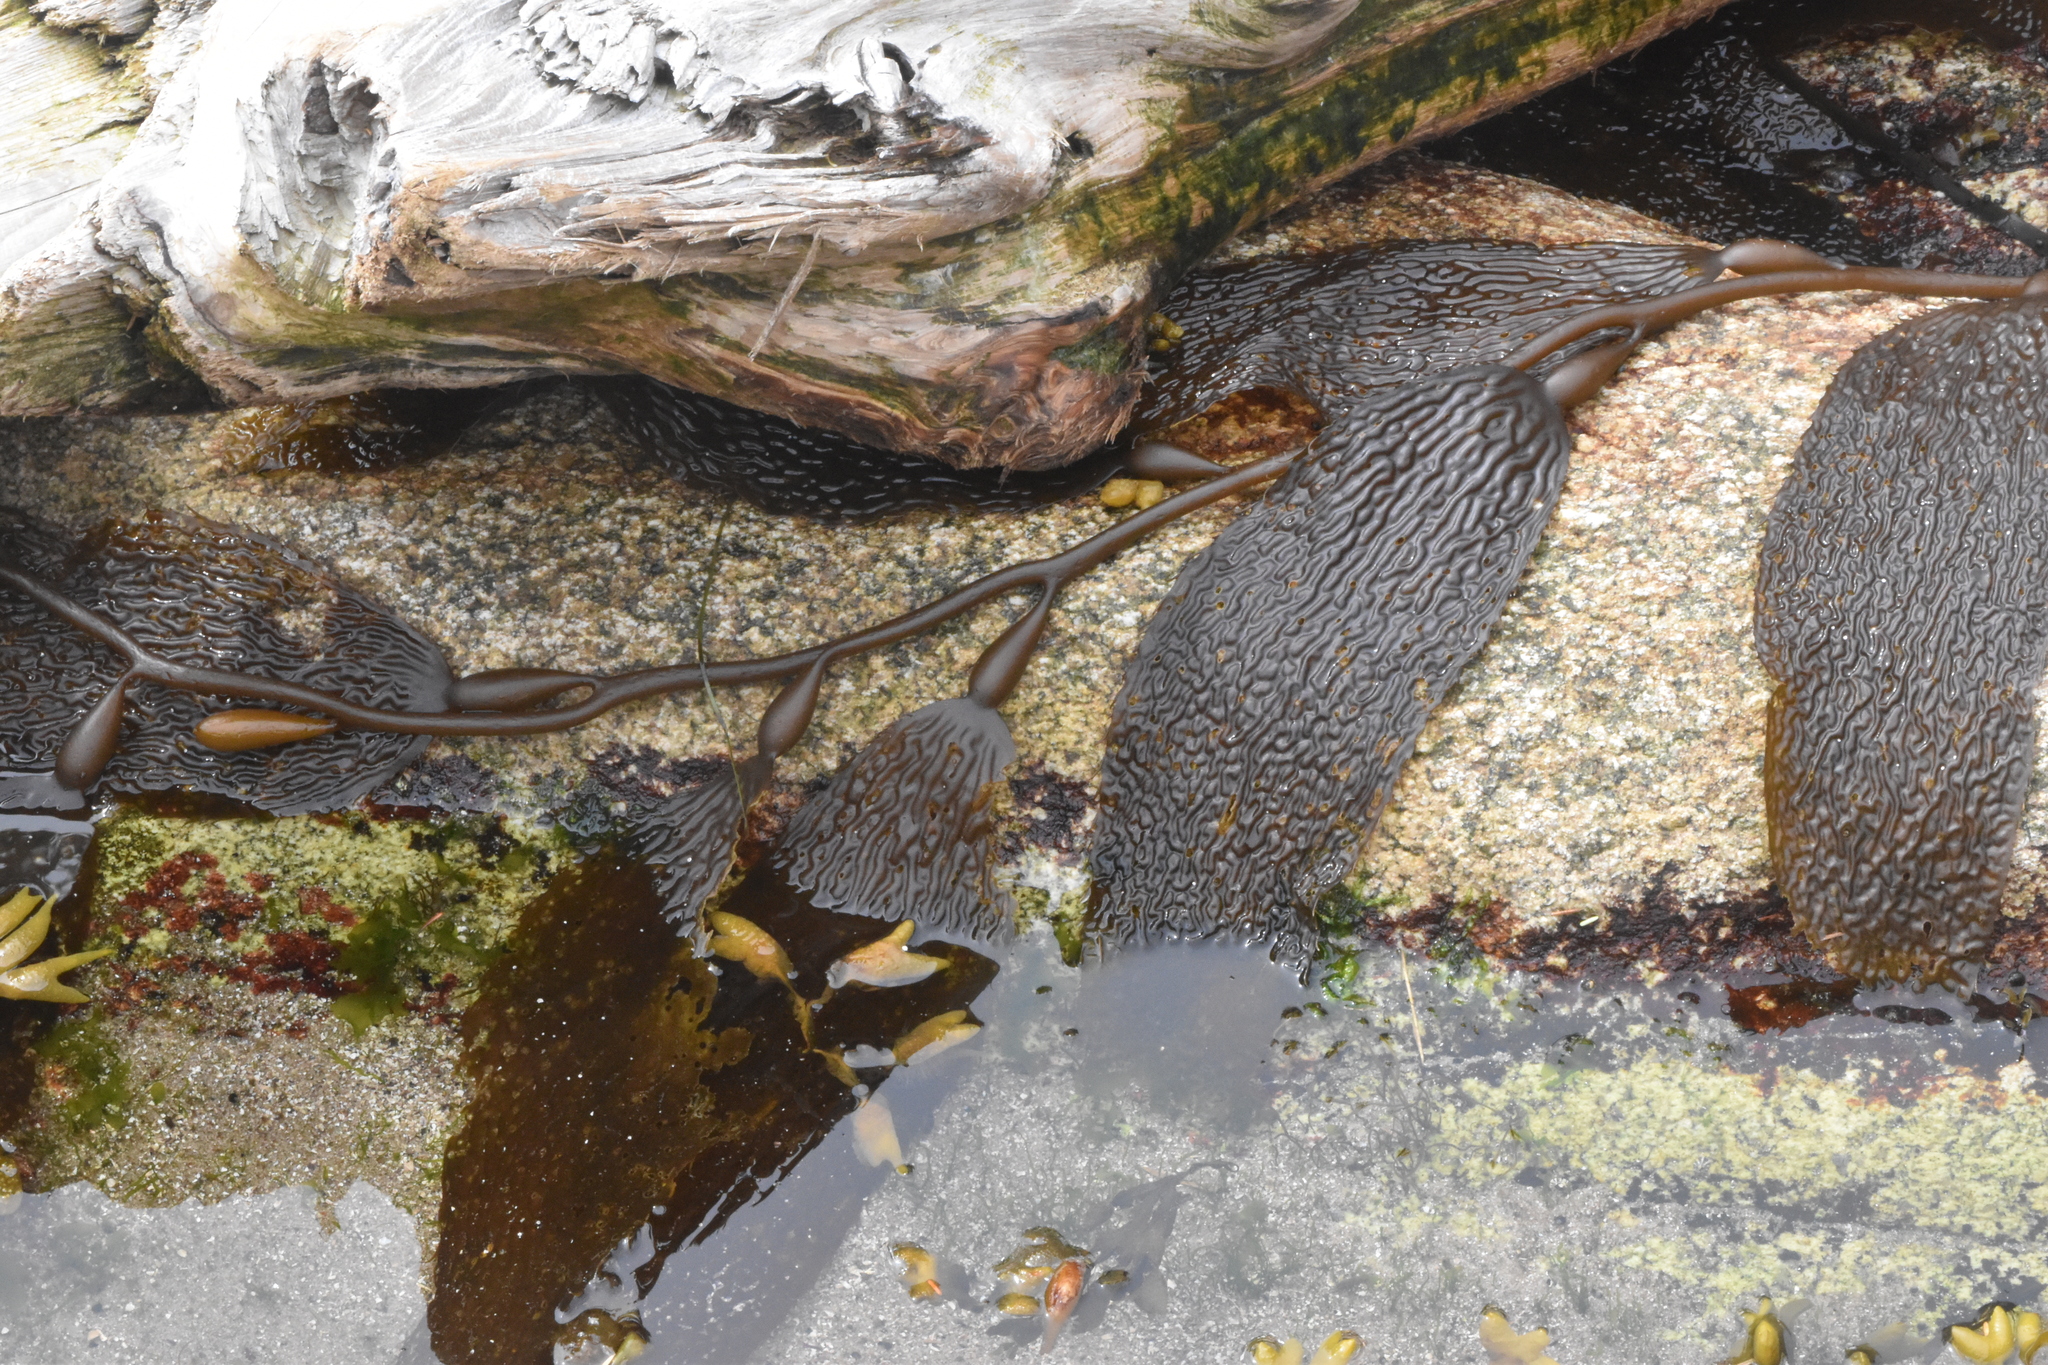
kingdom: Chromista
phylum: Ochrophyta
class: Phaeophyceae
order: Laminariales
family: Laminariaceae
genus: Macrocystis
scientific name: Macrocystis pyrifera
